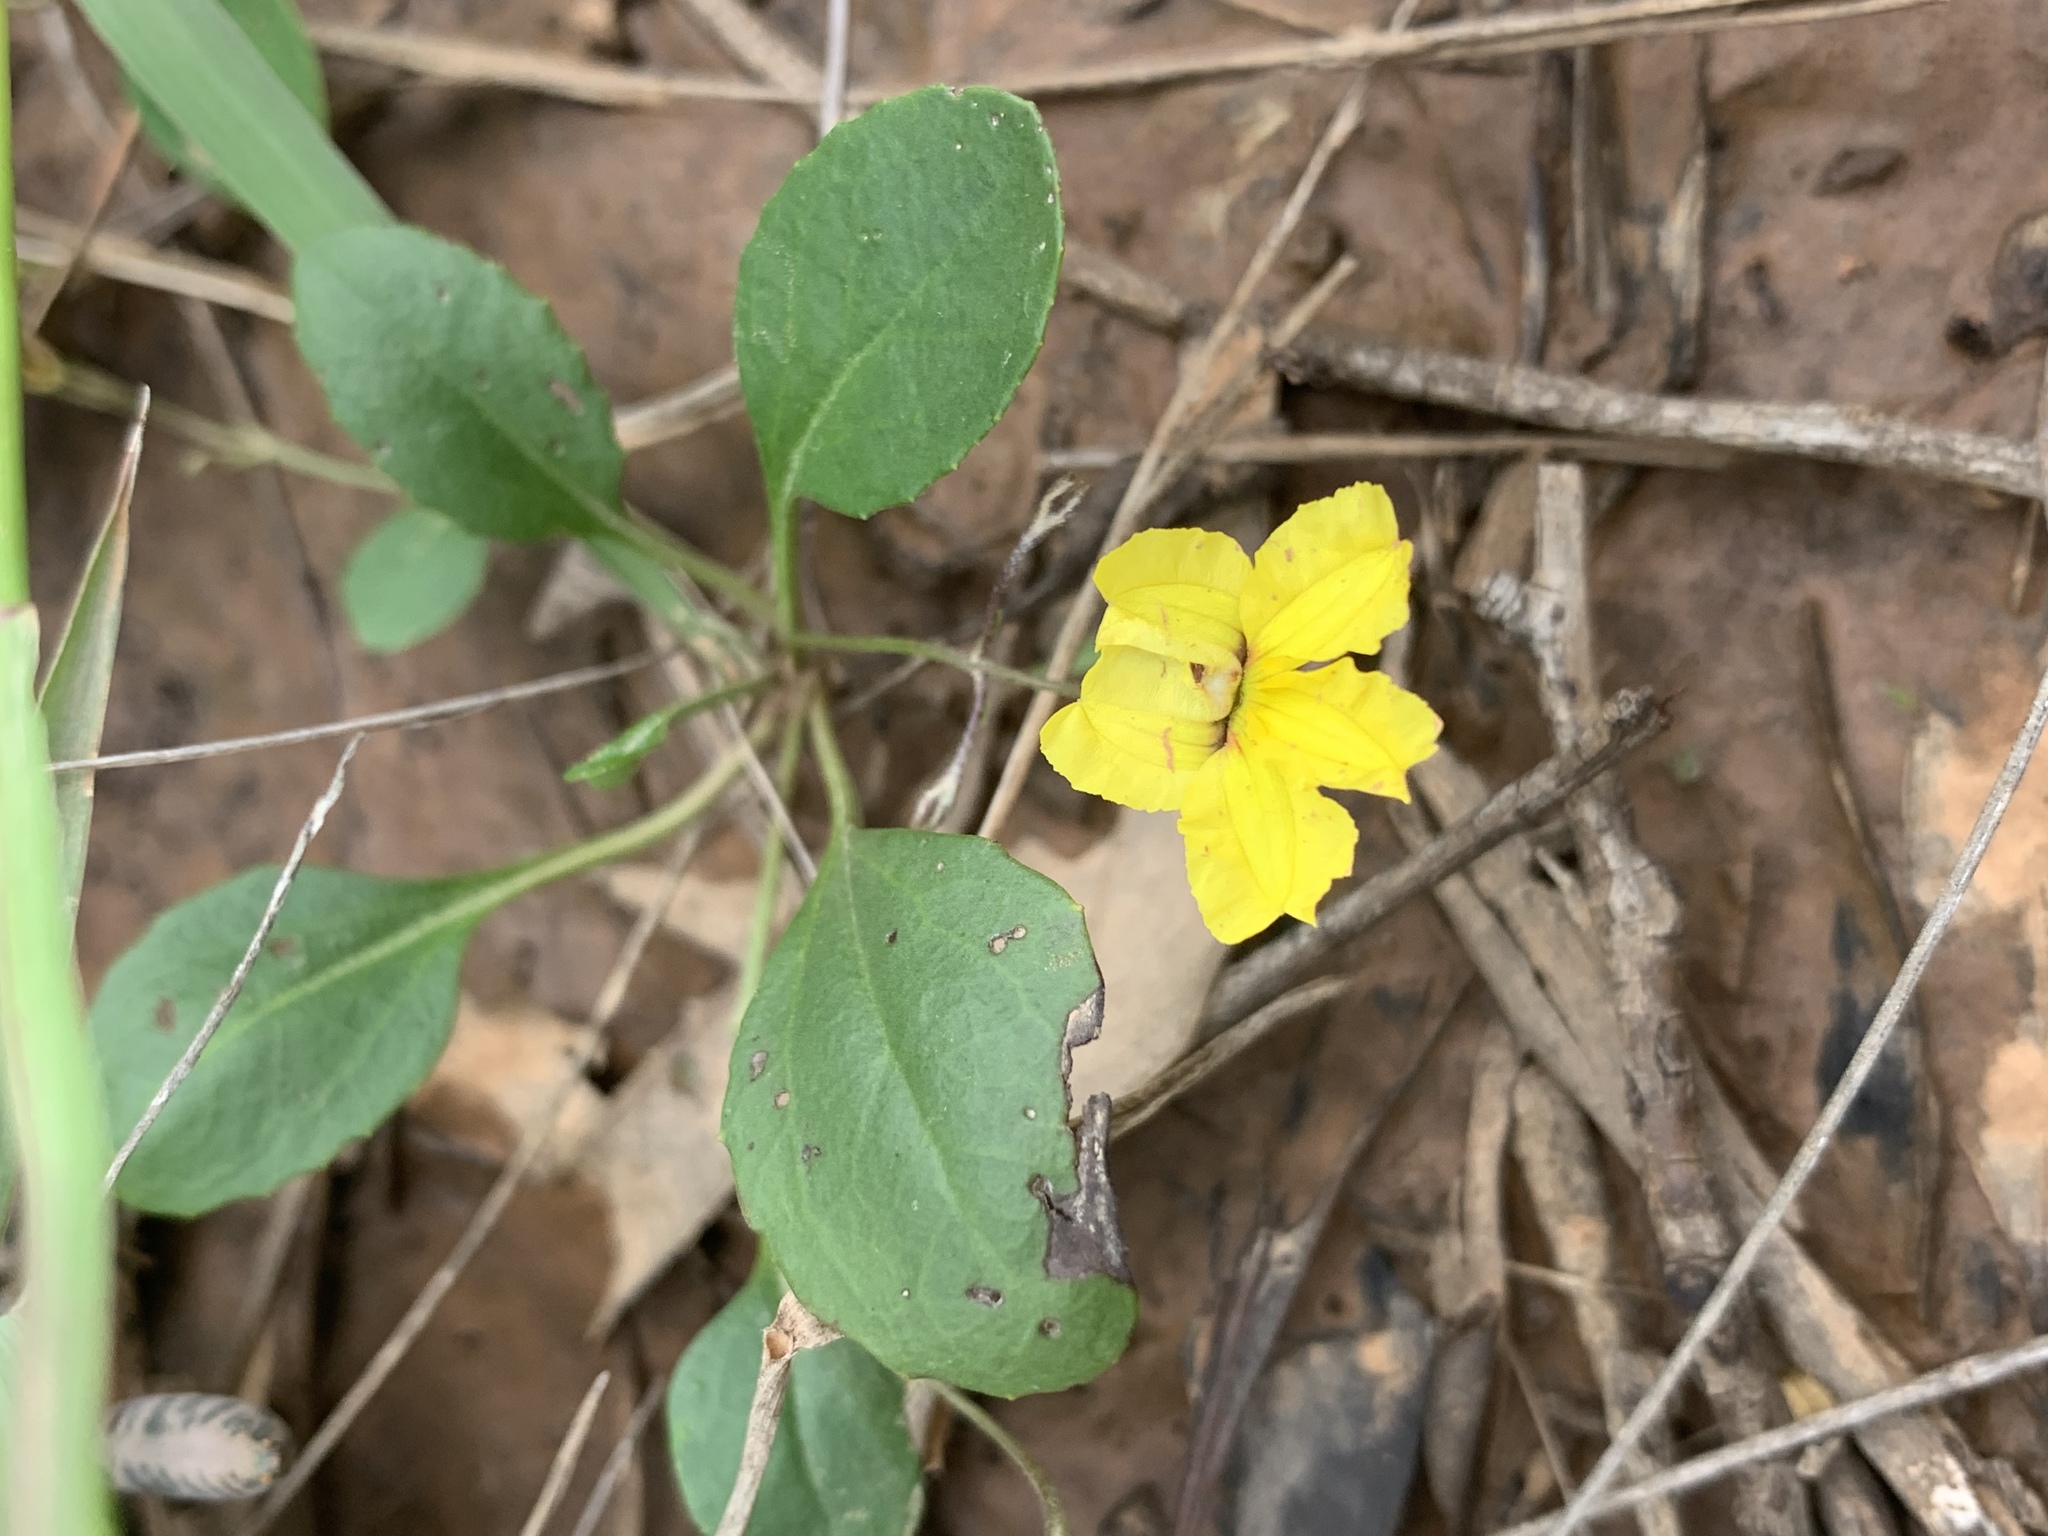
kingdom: Plantae
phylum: Tracheophyta
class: Magnoliopsida
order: Asterales
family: Goodeniaceae
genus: Goodenia
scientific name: Goodenia hederacea
